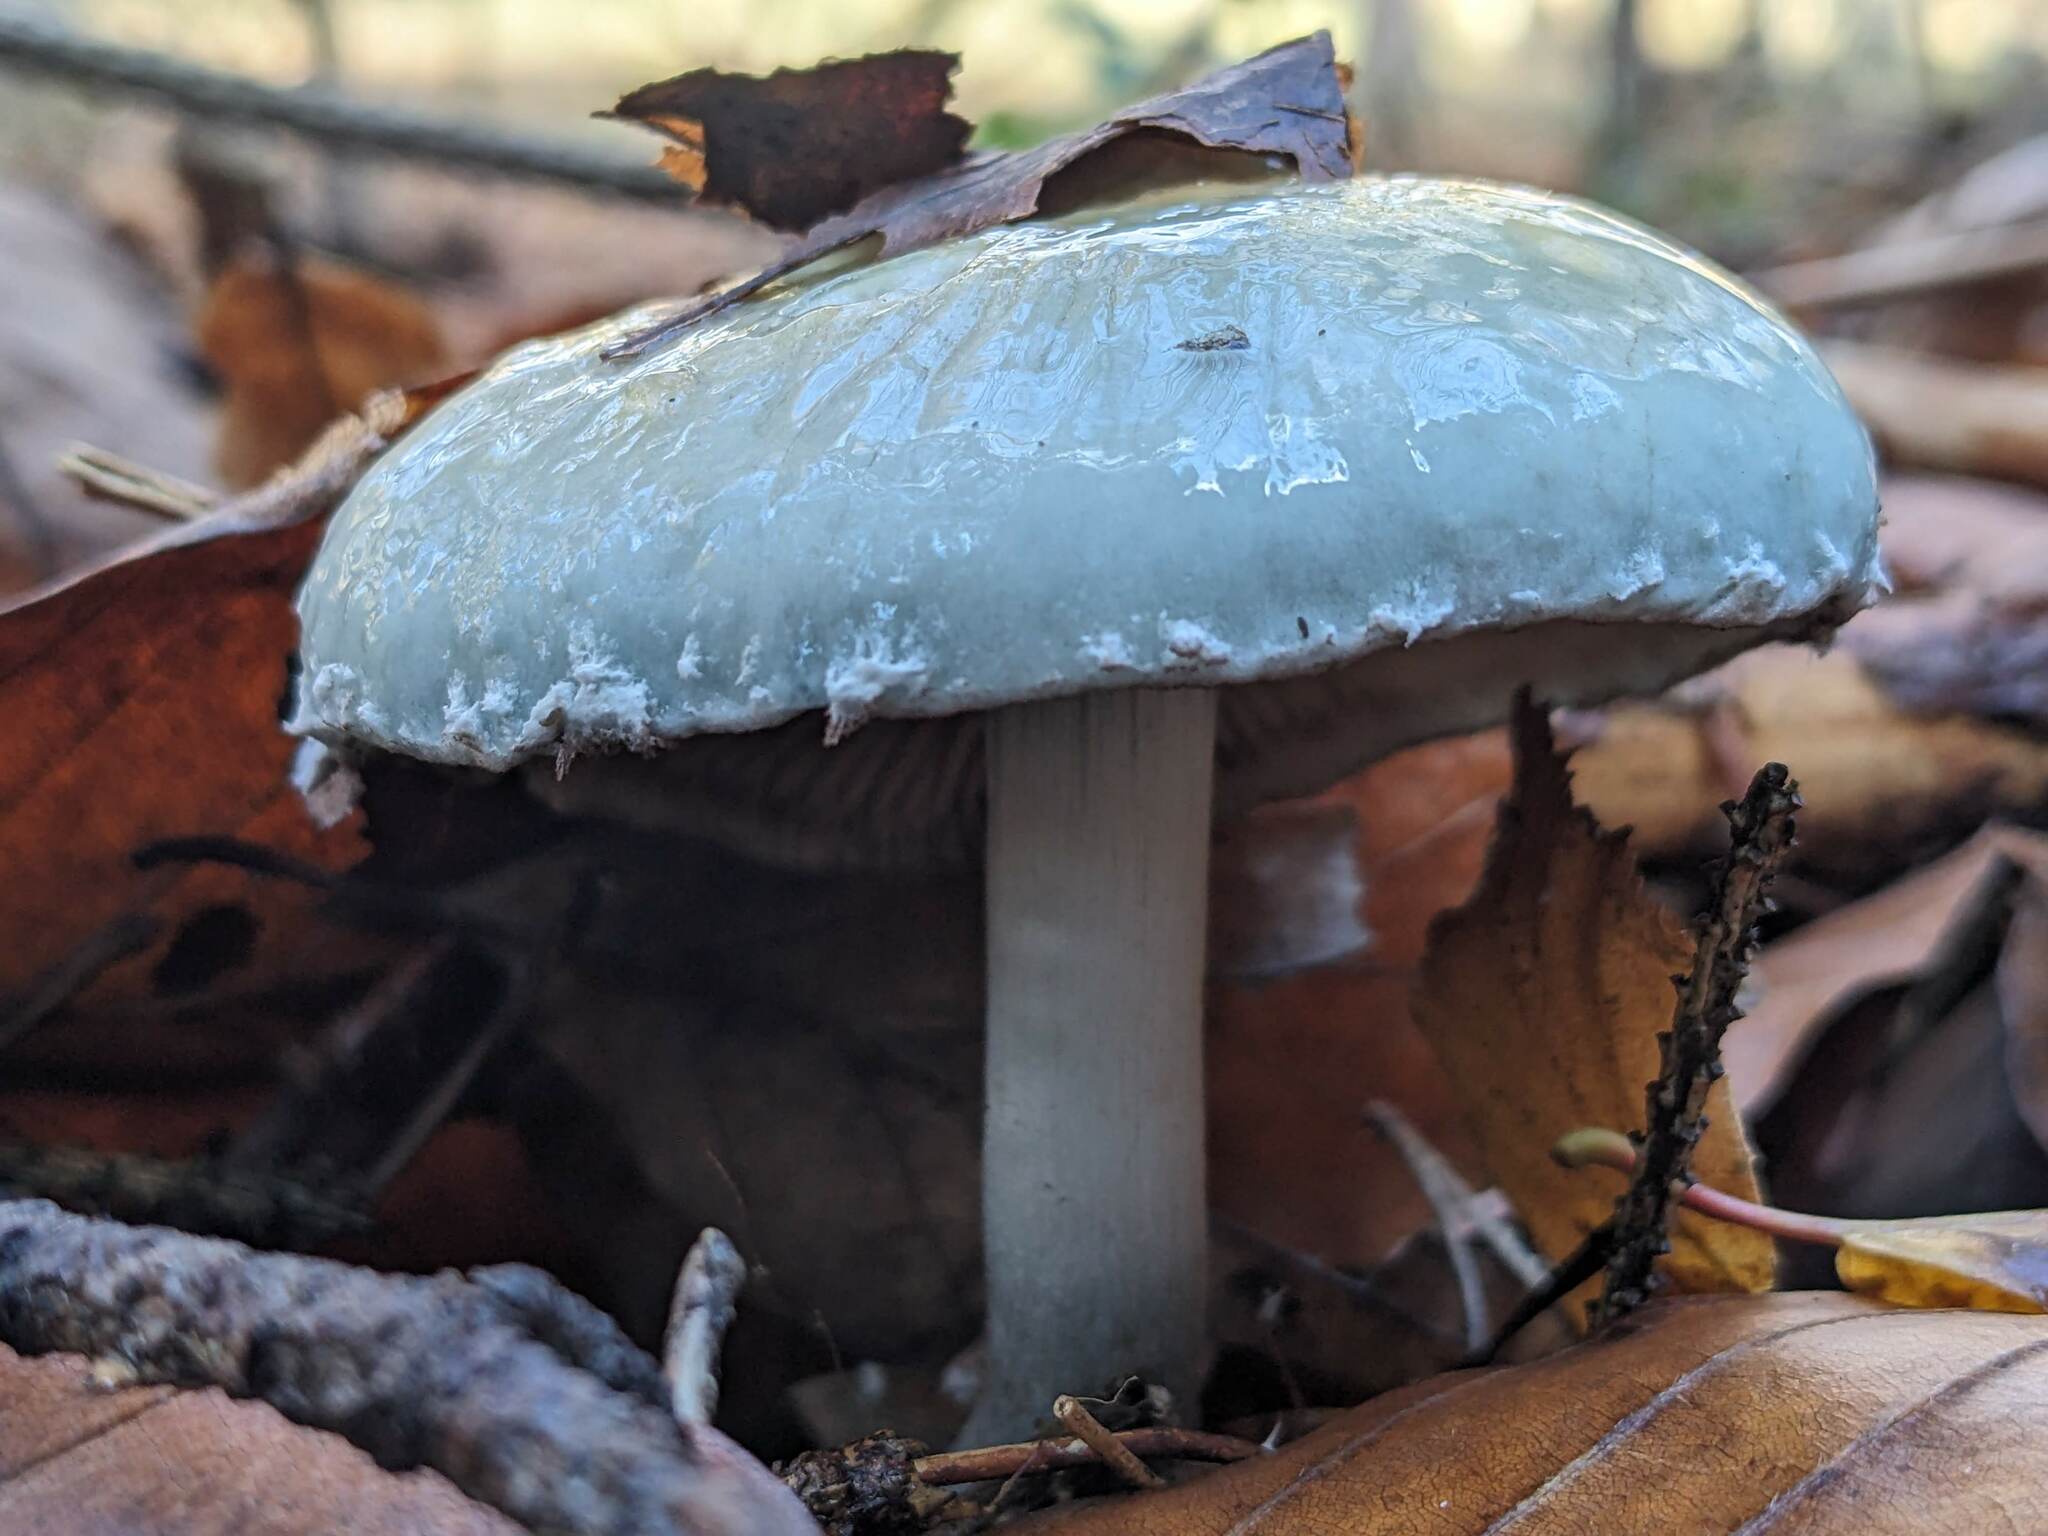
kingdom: Fungi
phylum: Basidiomycota
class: Agaricomycetes
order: Agaricales
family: Strophariaceae
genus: Stropharia
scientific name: Stropharia aeruginosa
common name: Verdigris roundhead
